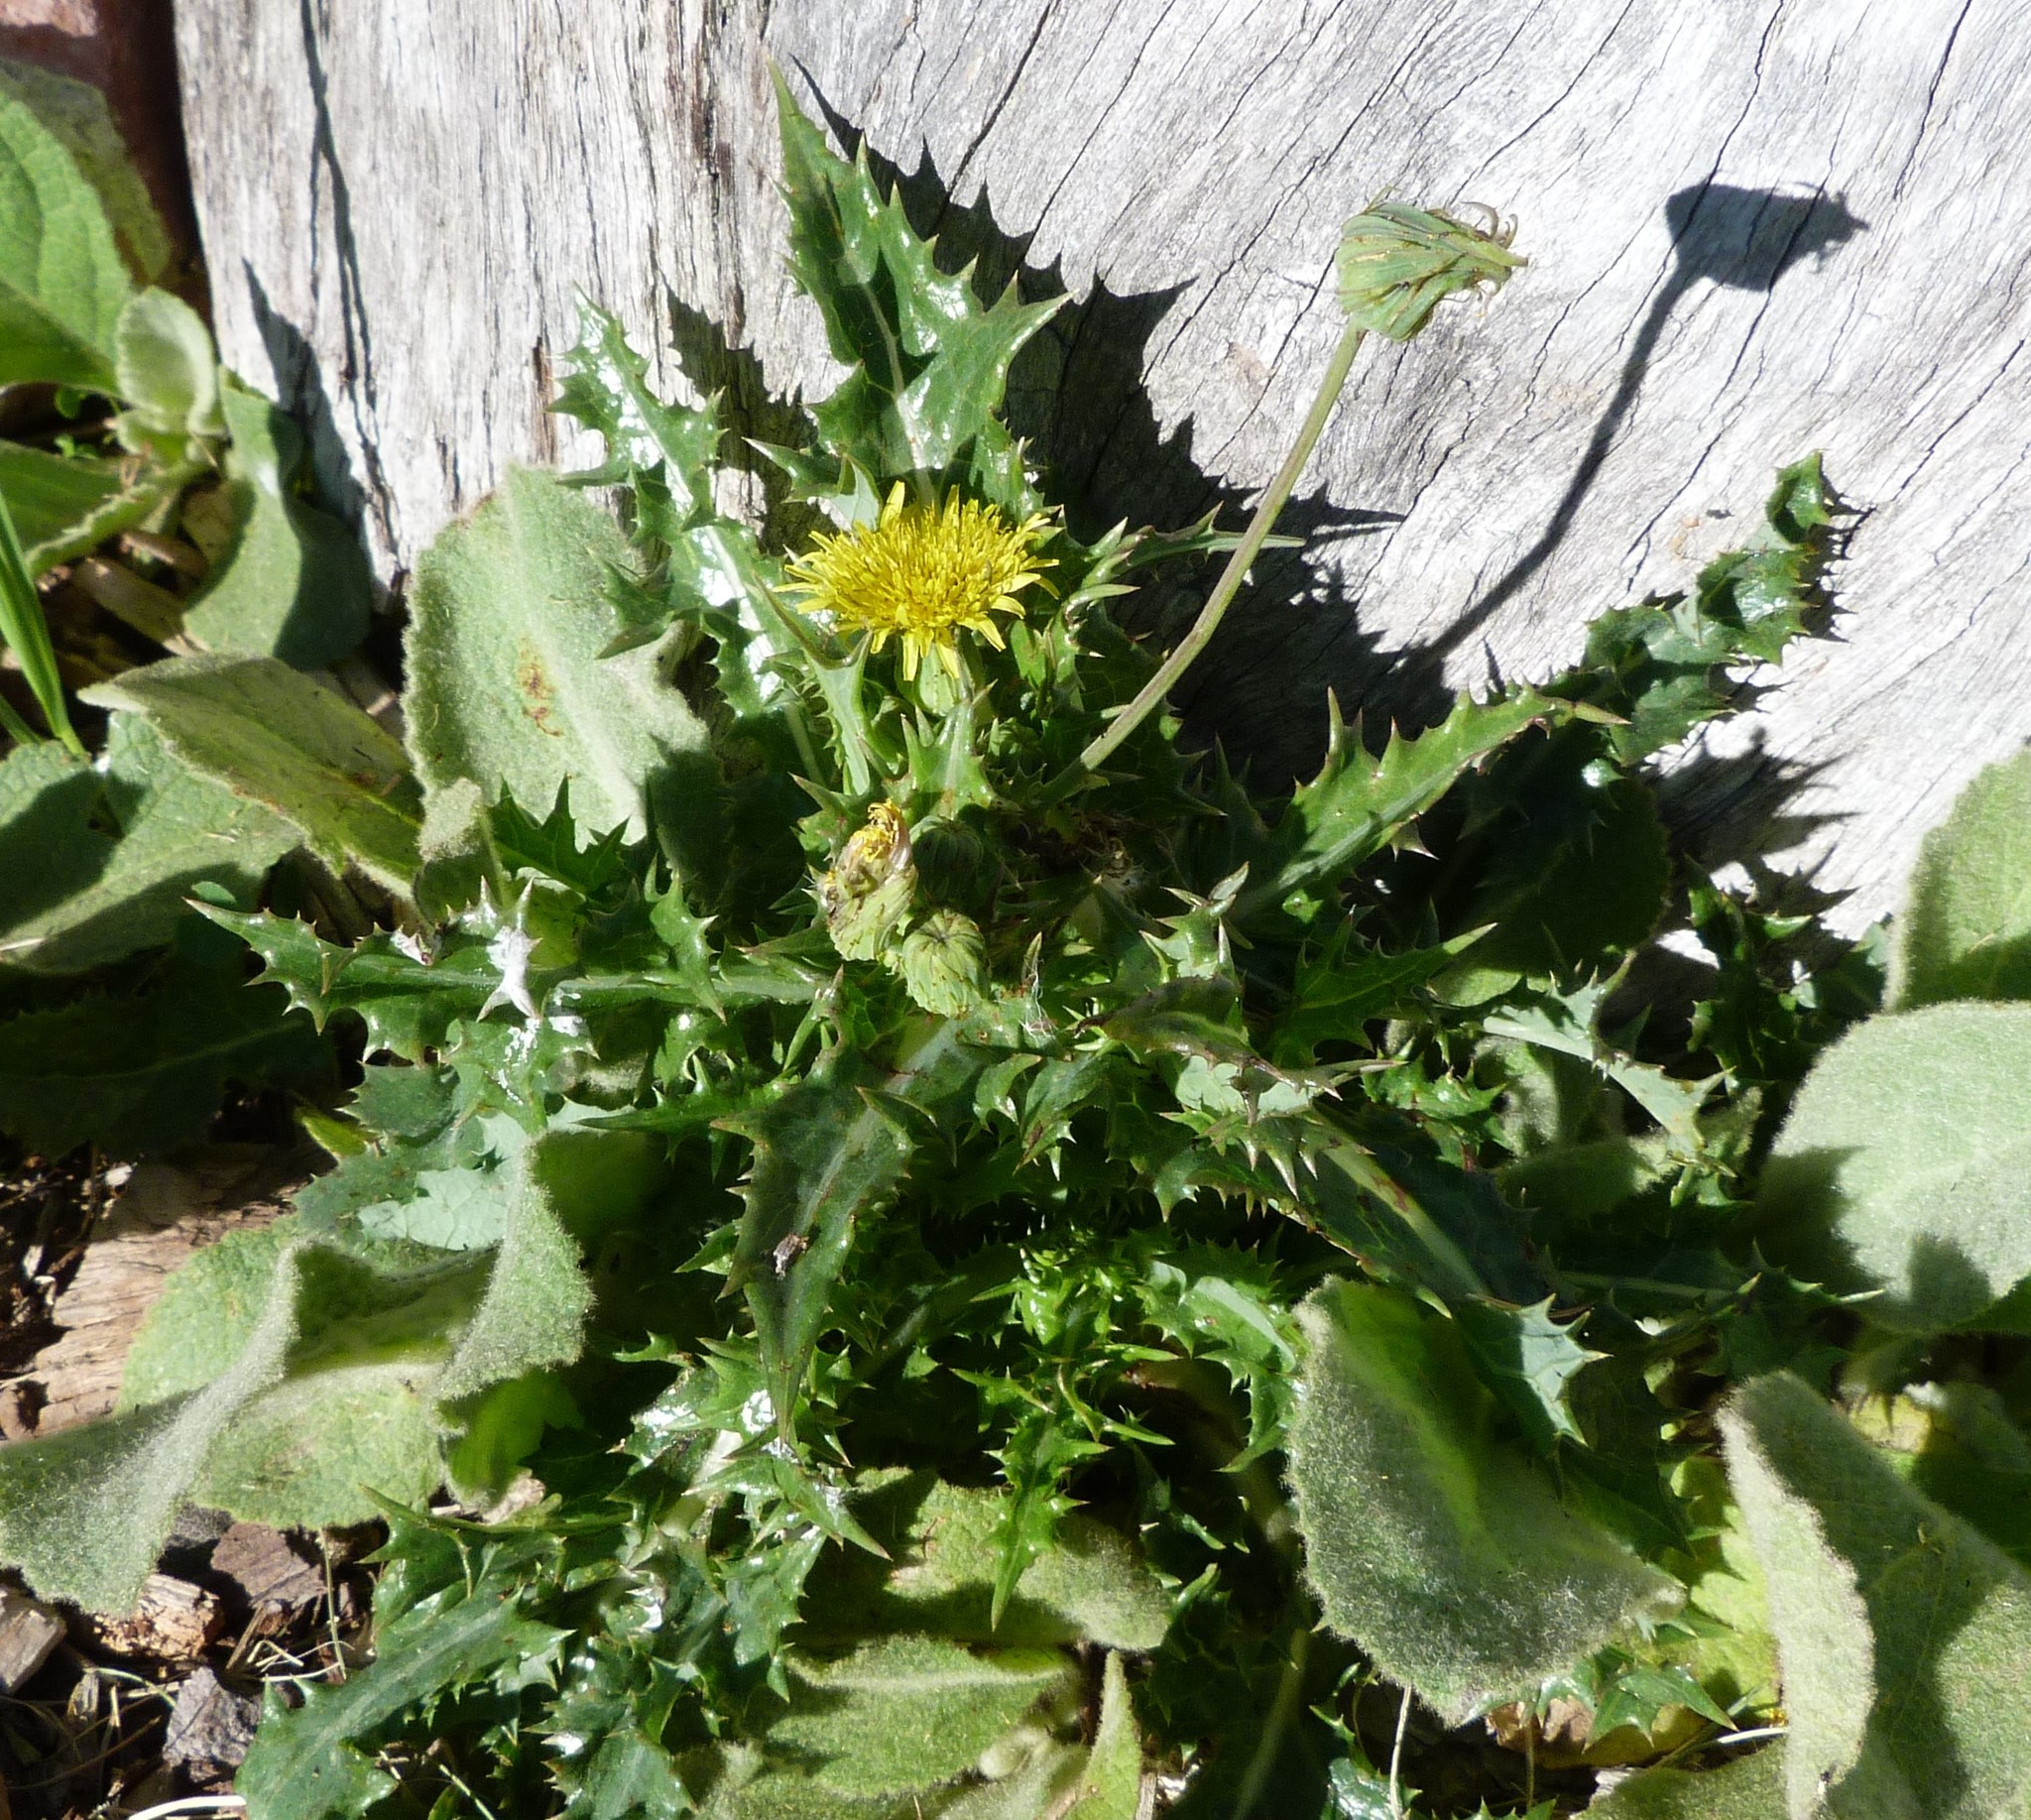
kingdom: Plantae
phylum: Tracheophyta
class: Magnoliopsida
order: Asterales
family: Asteraceae
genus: Sonchus
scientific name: Sonchus asper
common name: Prickly sow-thistle
